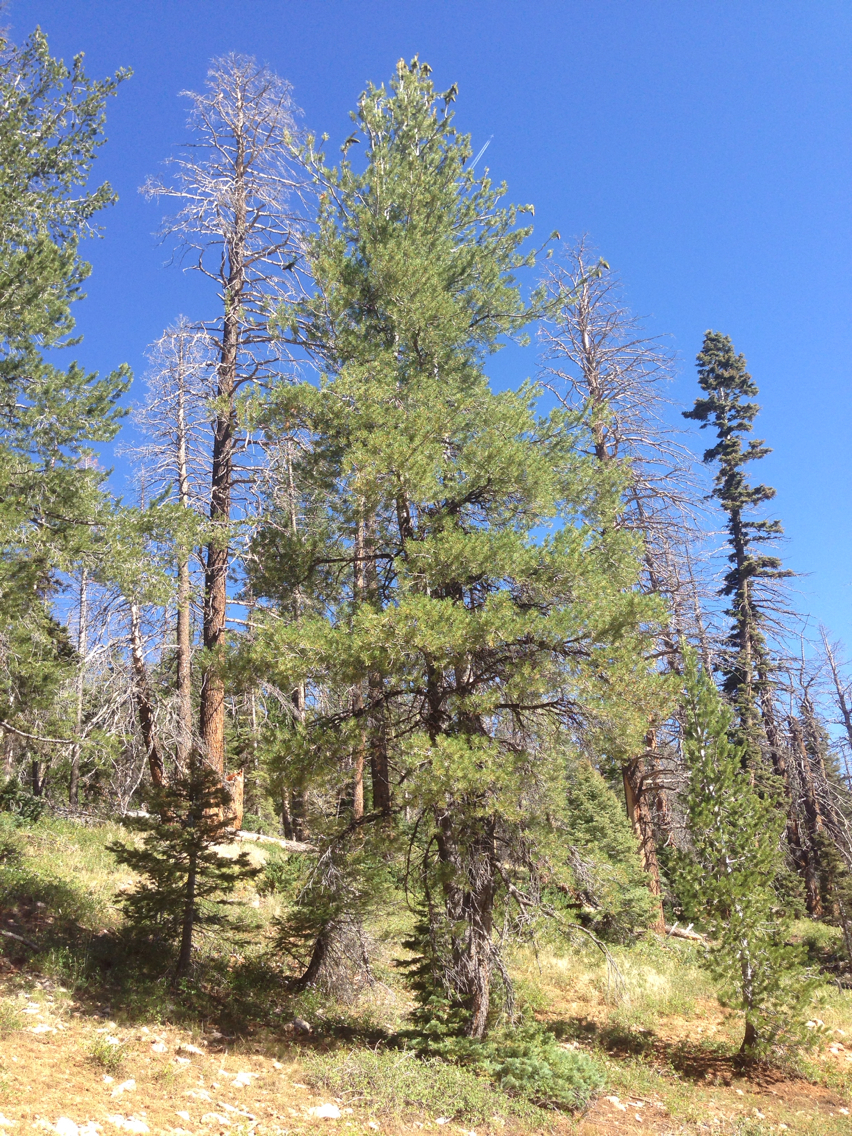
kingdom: Plantae
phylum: Tracheophyta
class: Pinopsida
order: Pinales
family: Pinaceae
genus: Pinus
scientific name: Pinus flexilis
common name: Limber pine
